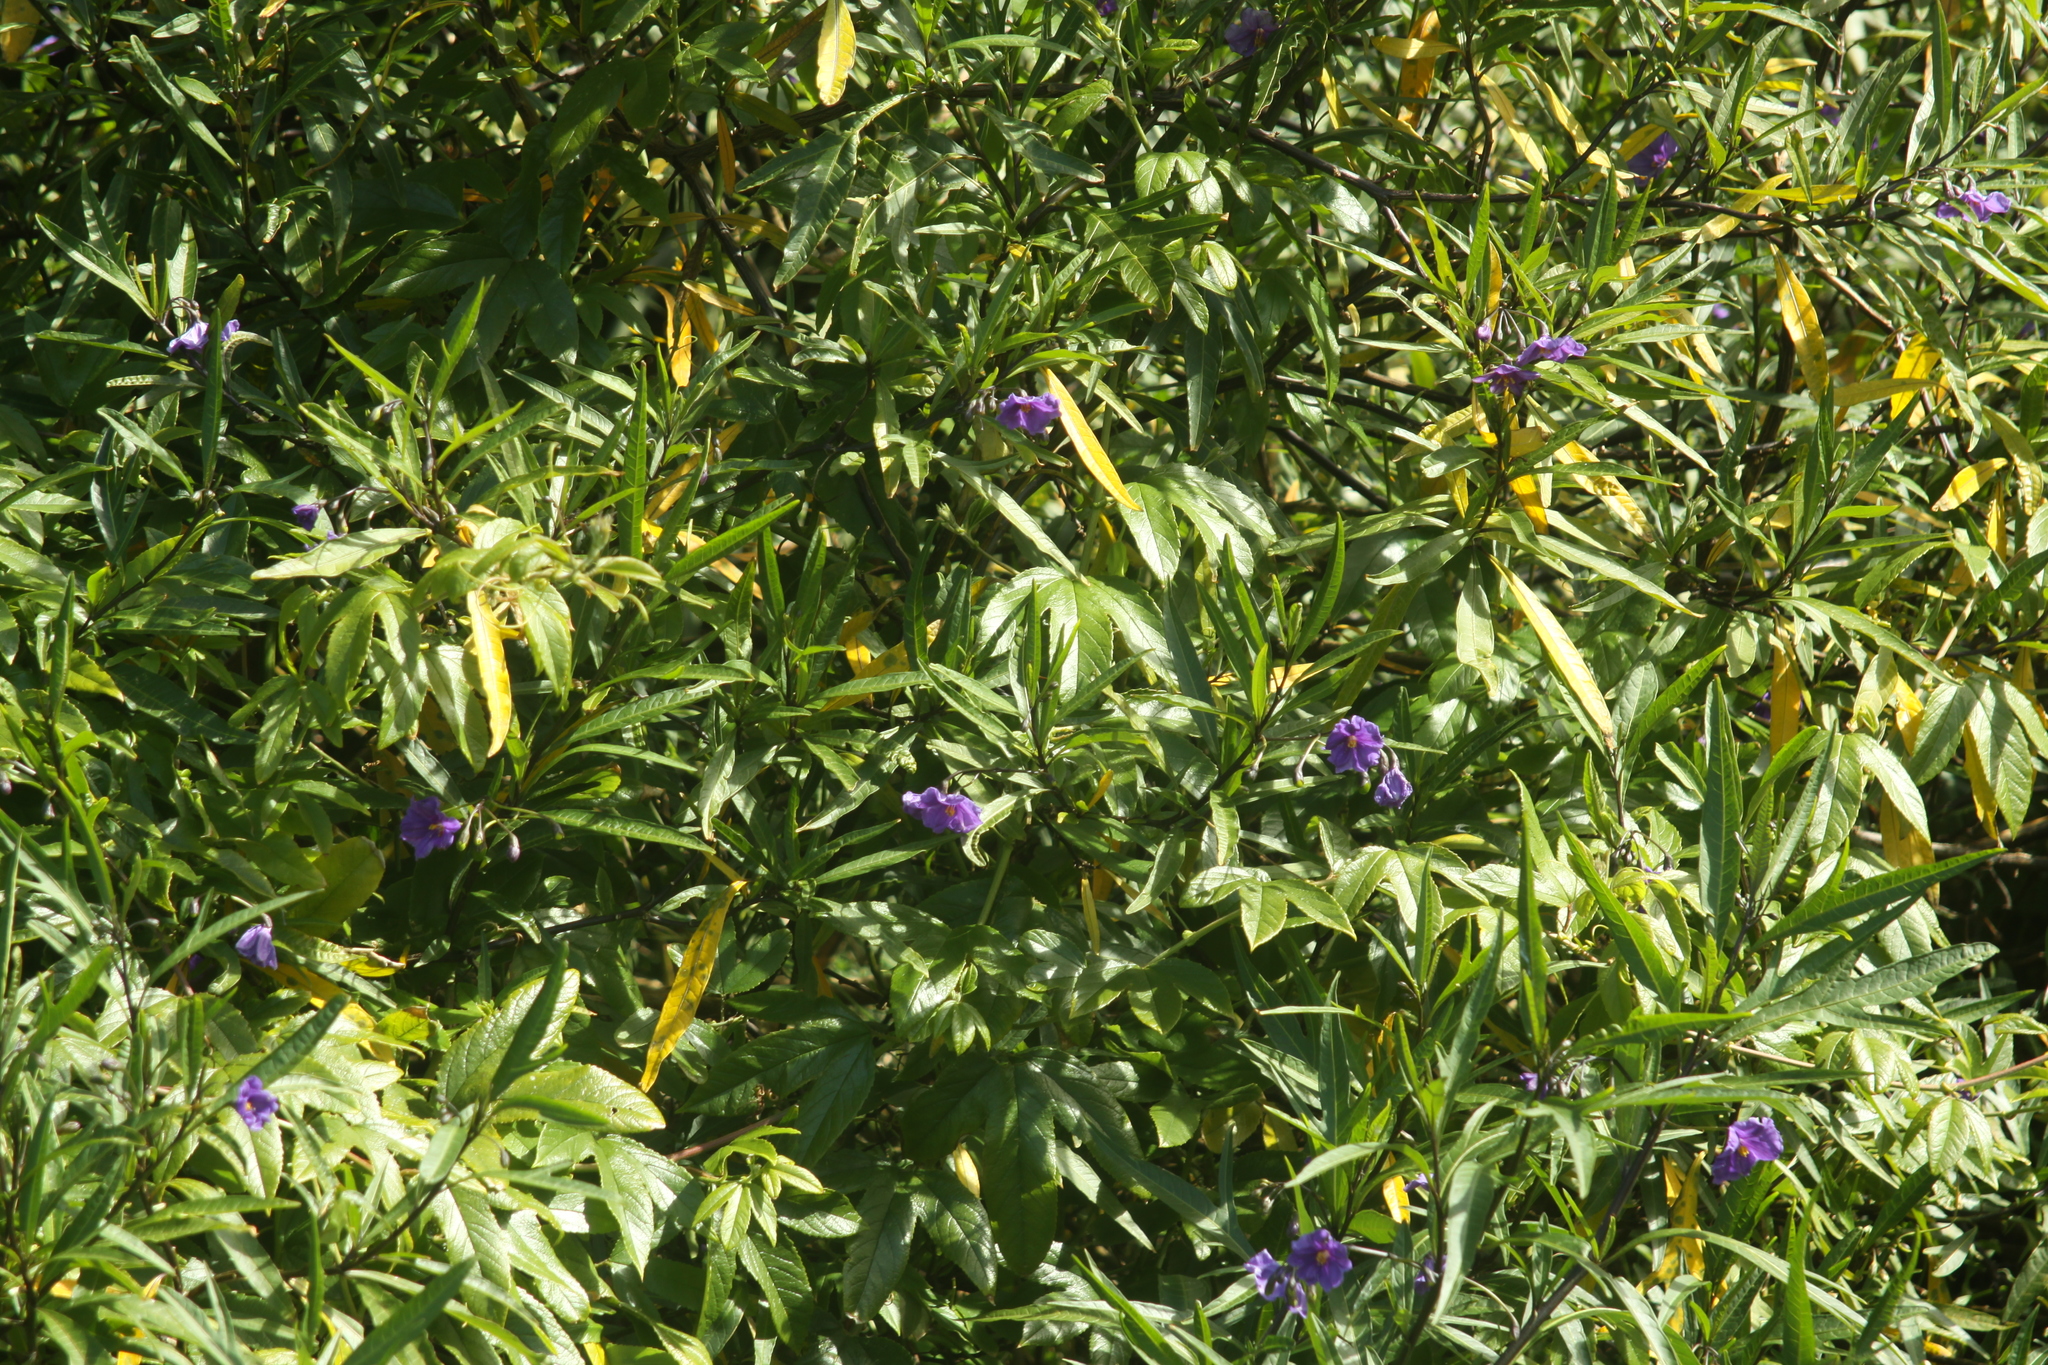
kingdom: Plantae
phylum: Tracheophyta
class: Magnoliopsida
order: Solanales
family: Solanaceae
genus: Solanum
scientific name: Solanum laciniatum
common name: Kangaroo-apple
